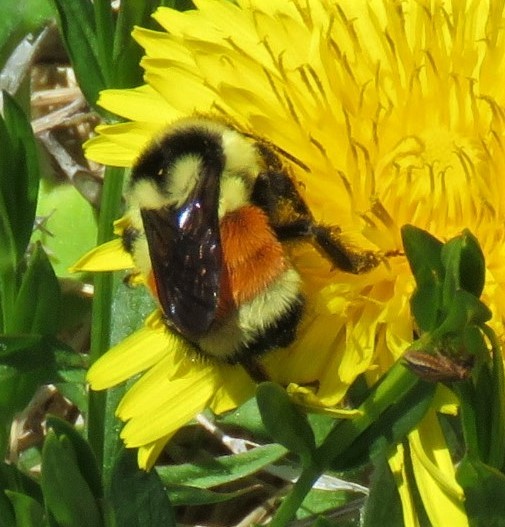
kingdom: Animalia
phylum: Arthropoda
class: Insecta
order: Hymenoptera
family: Apidae
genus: Bombus
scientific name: Bombus ternarius
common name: Tri-colored bumble bee
